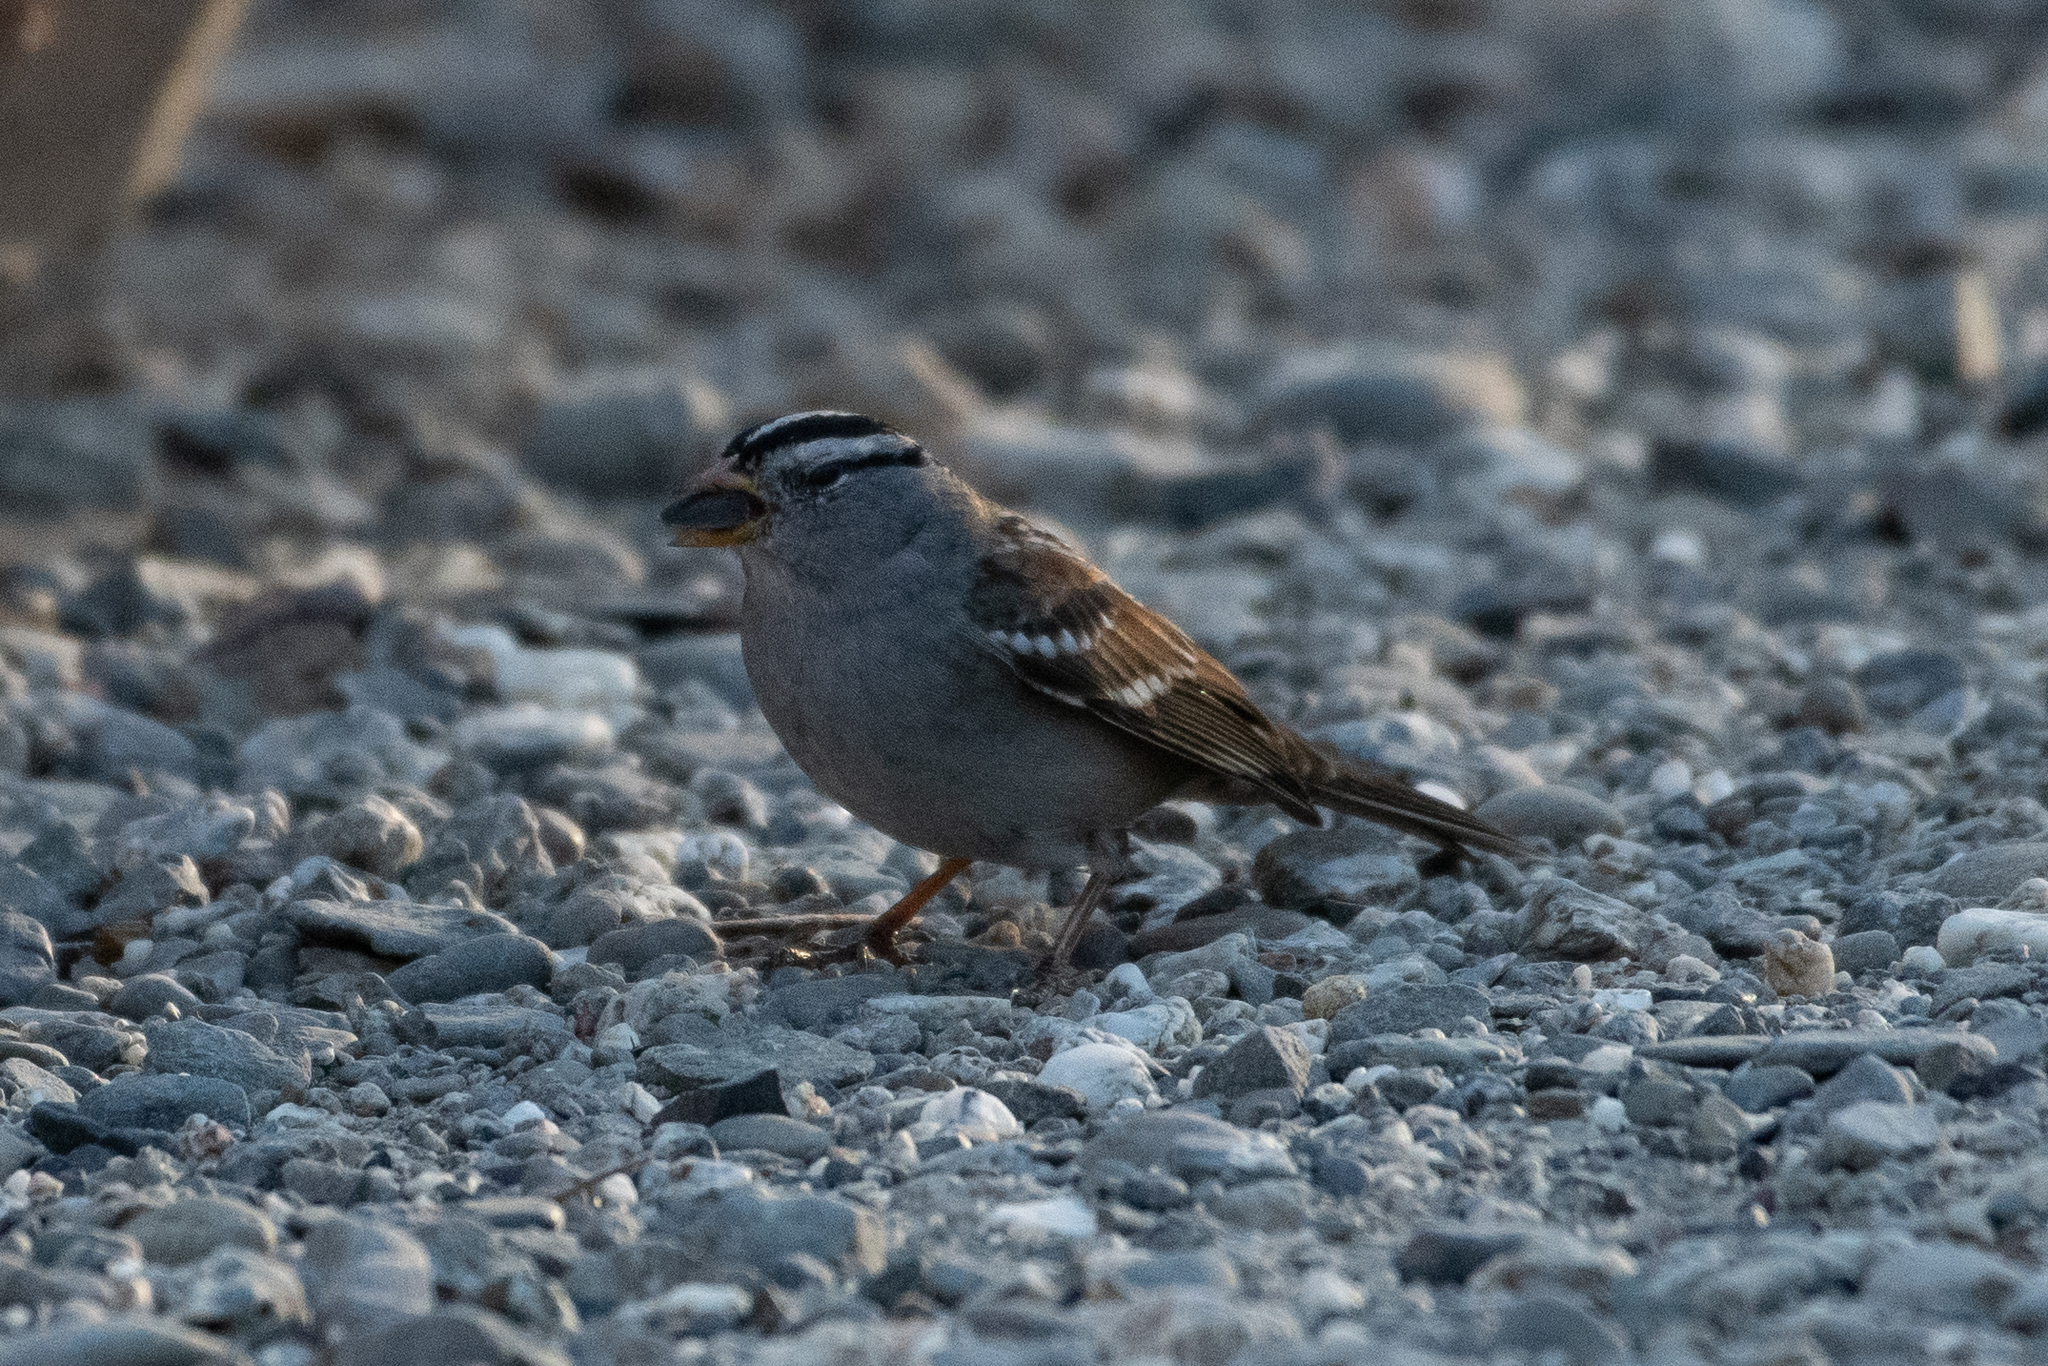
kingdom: Animalia
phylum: Chordata
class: Aves
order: Passeriformes
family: Passerellidae
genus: Zonotrichia
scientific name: Zonotrichia leucophrys
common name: White-crowned sparrow
